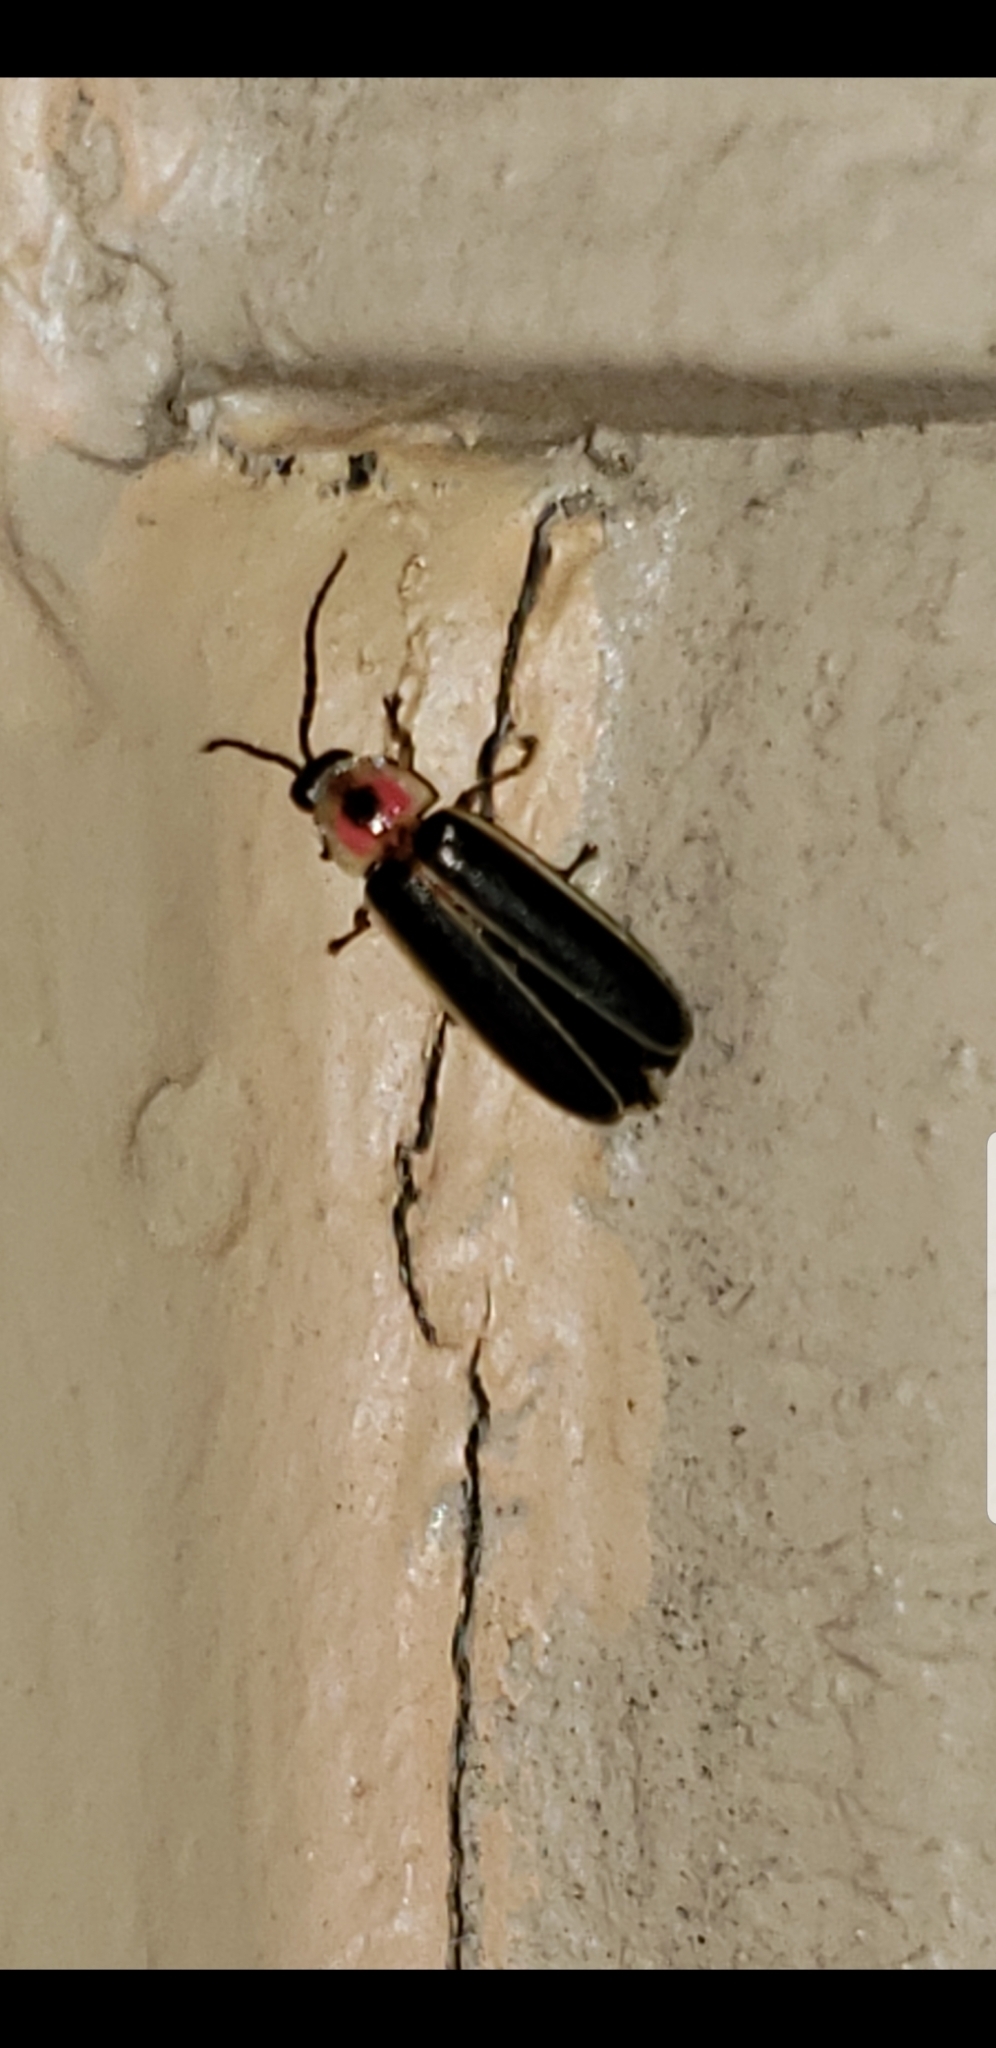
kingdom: Animalia
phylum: Arthropoda
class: Insecta
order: Coleoptera
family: Lampyridae
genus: Photinus
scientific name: Photinus pyralis
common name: Big dipper firefly
